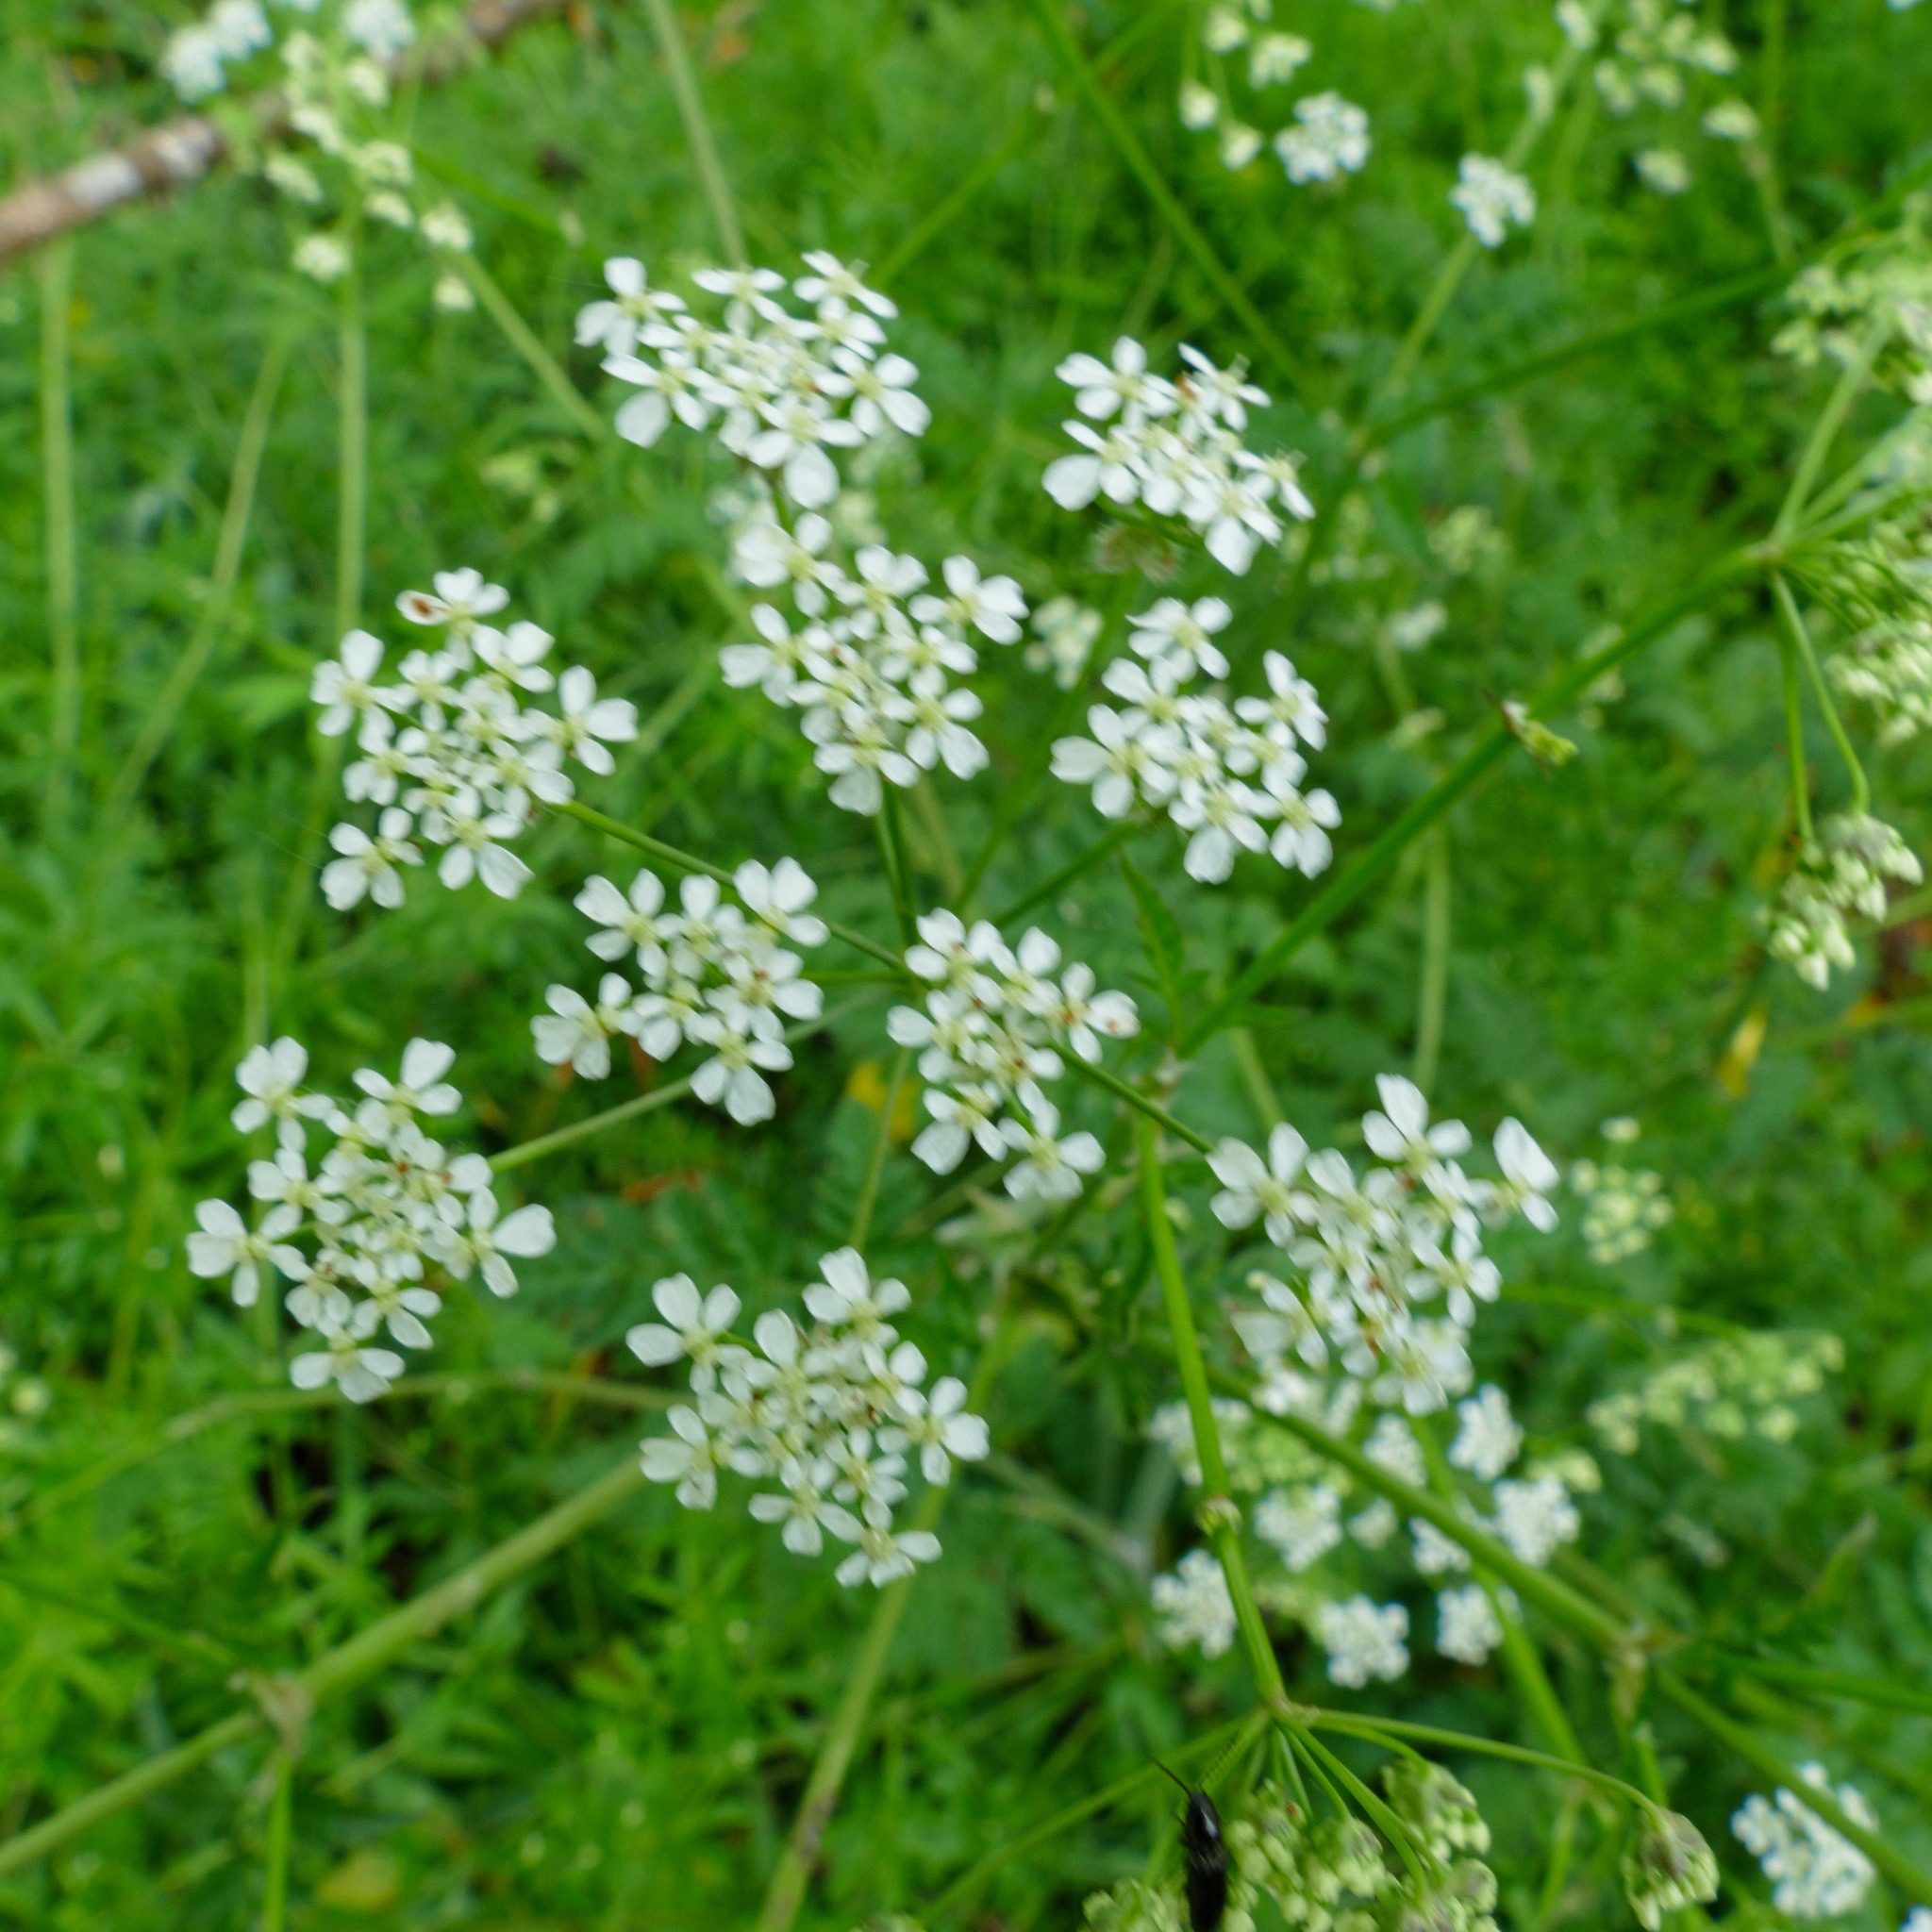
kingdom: Plantae
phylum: Tracheophyta
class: Magnoliopsida
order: Apiales
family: Apiaceae
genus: Anthriscus
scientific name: Anthriscus sylvestris
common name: Cow parsley
